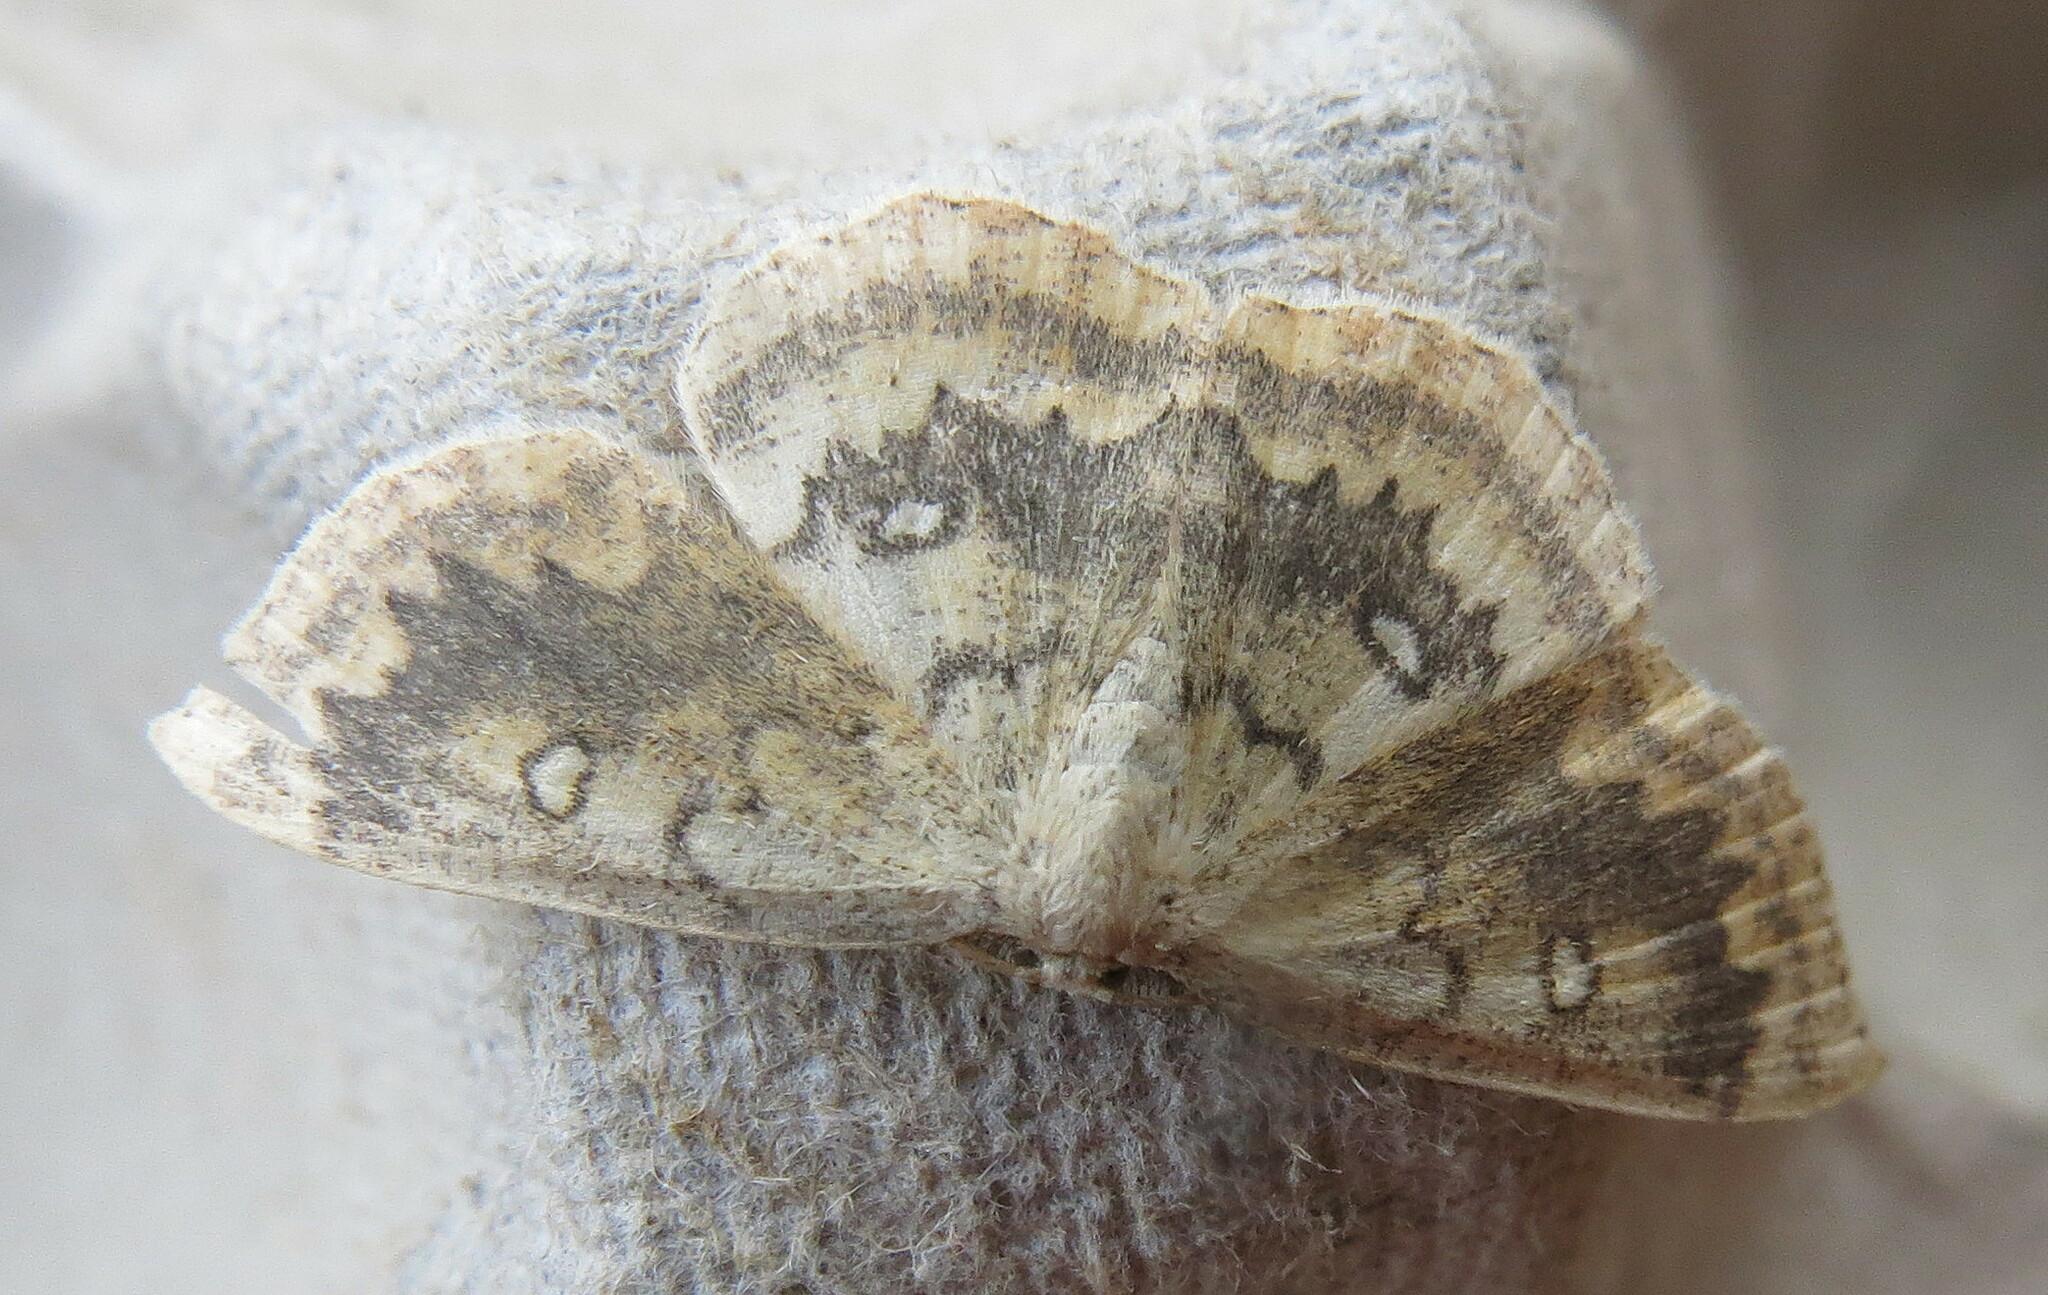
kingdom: Animalia
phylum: Arthropoda
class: Insecta
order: Lepidoptera
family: Geometridae
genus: Cyclophora
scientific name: Cyclophora annularia
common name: Mocha
